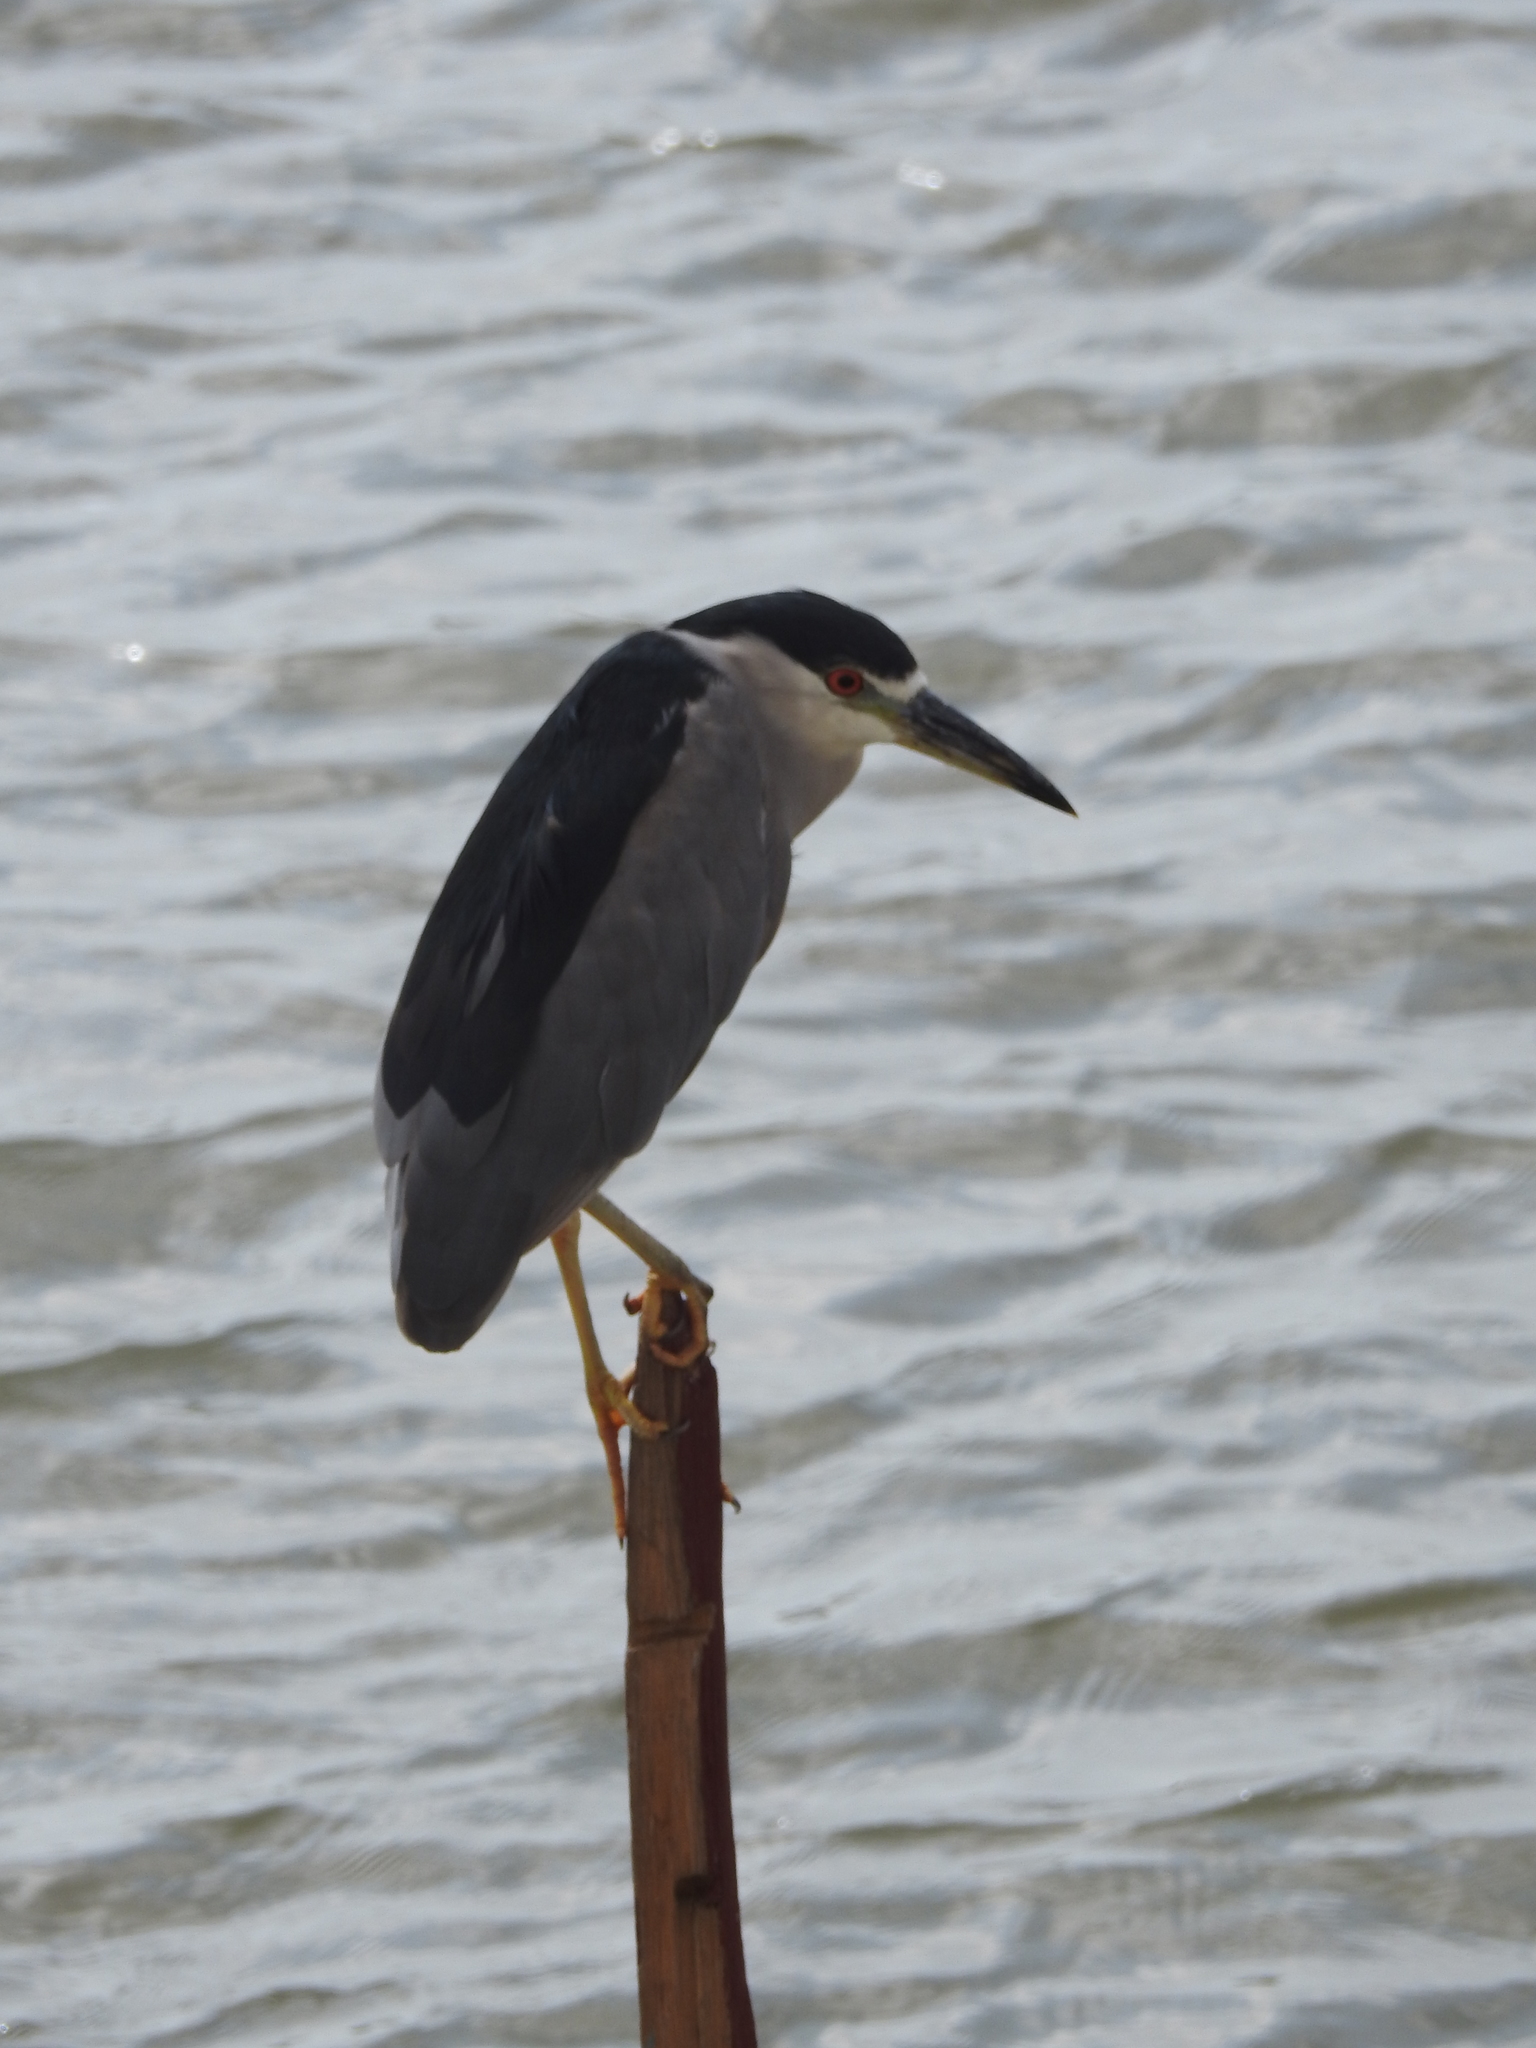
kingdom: Animalia
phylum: Chordata
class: Aves
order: Pelecaniformes
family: Ardeidae
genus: Nycticorax
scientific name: Nycticorax nycticorax
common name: Black-crowned night heron
